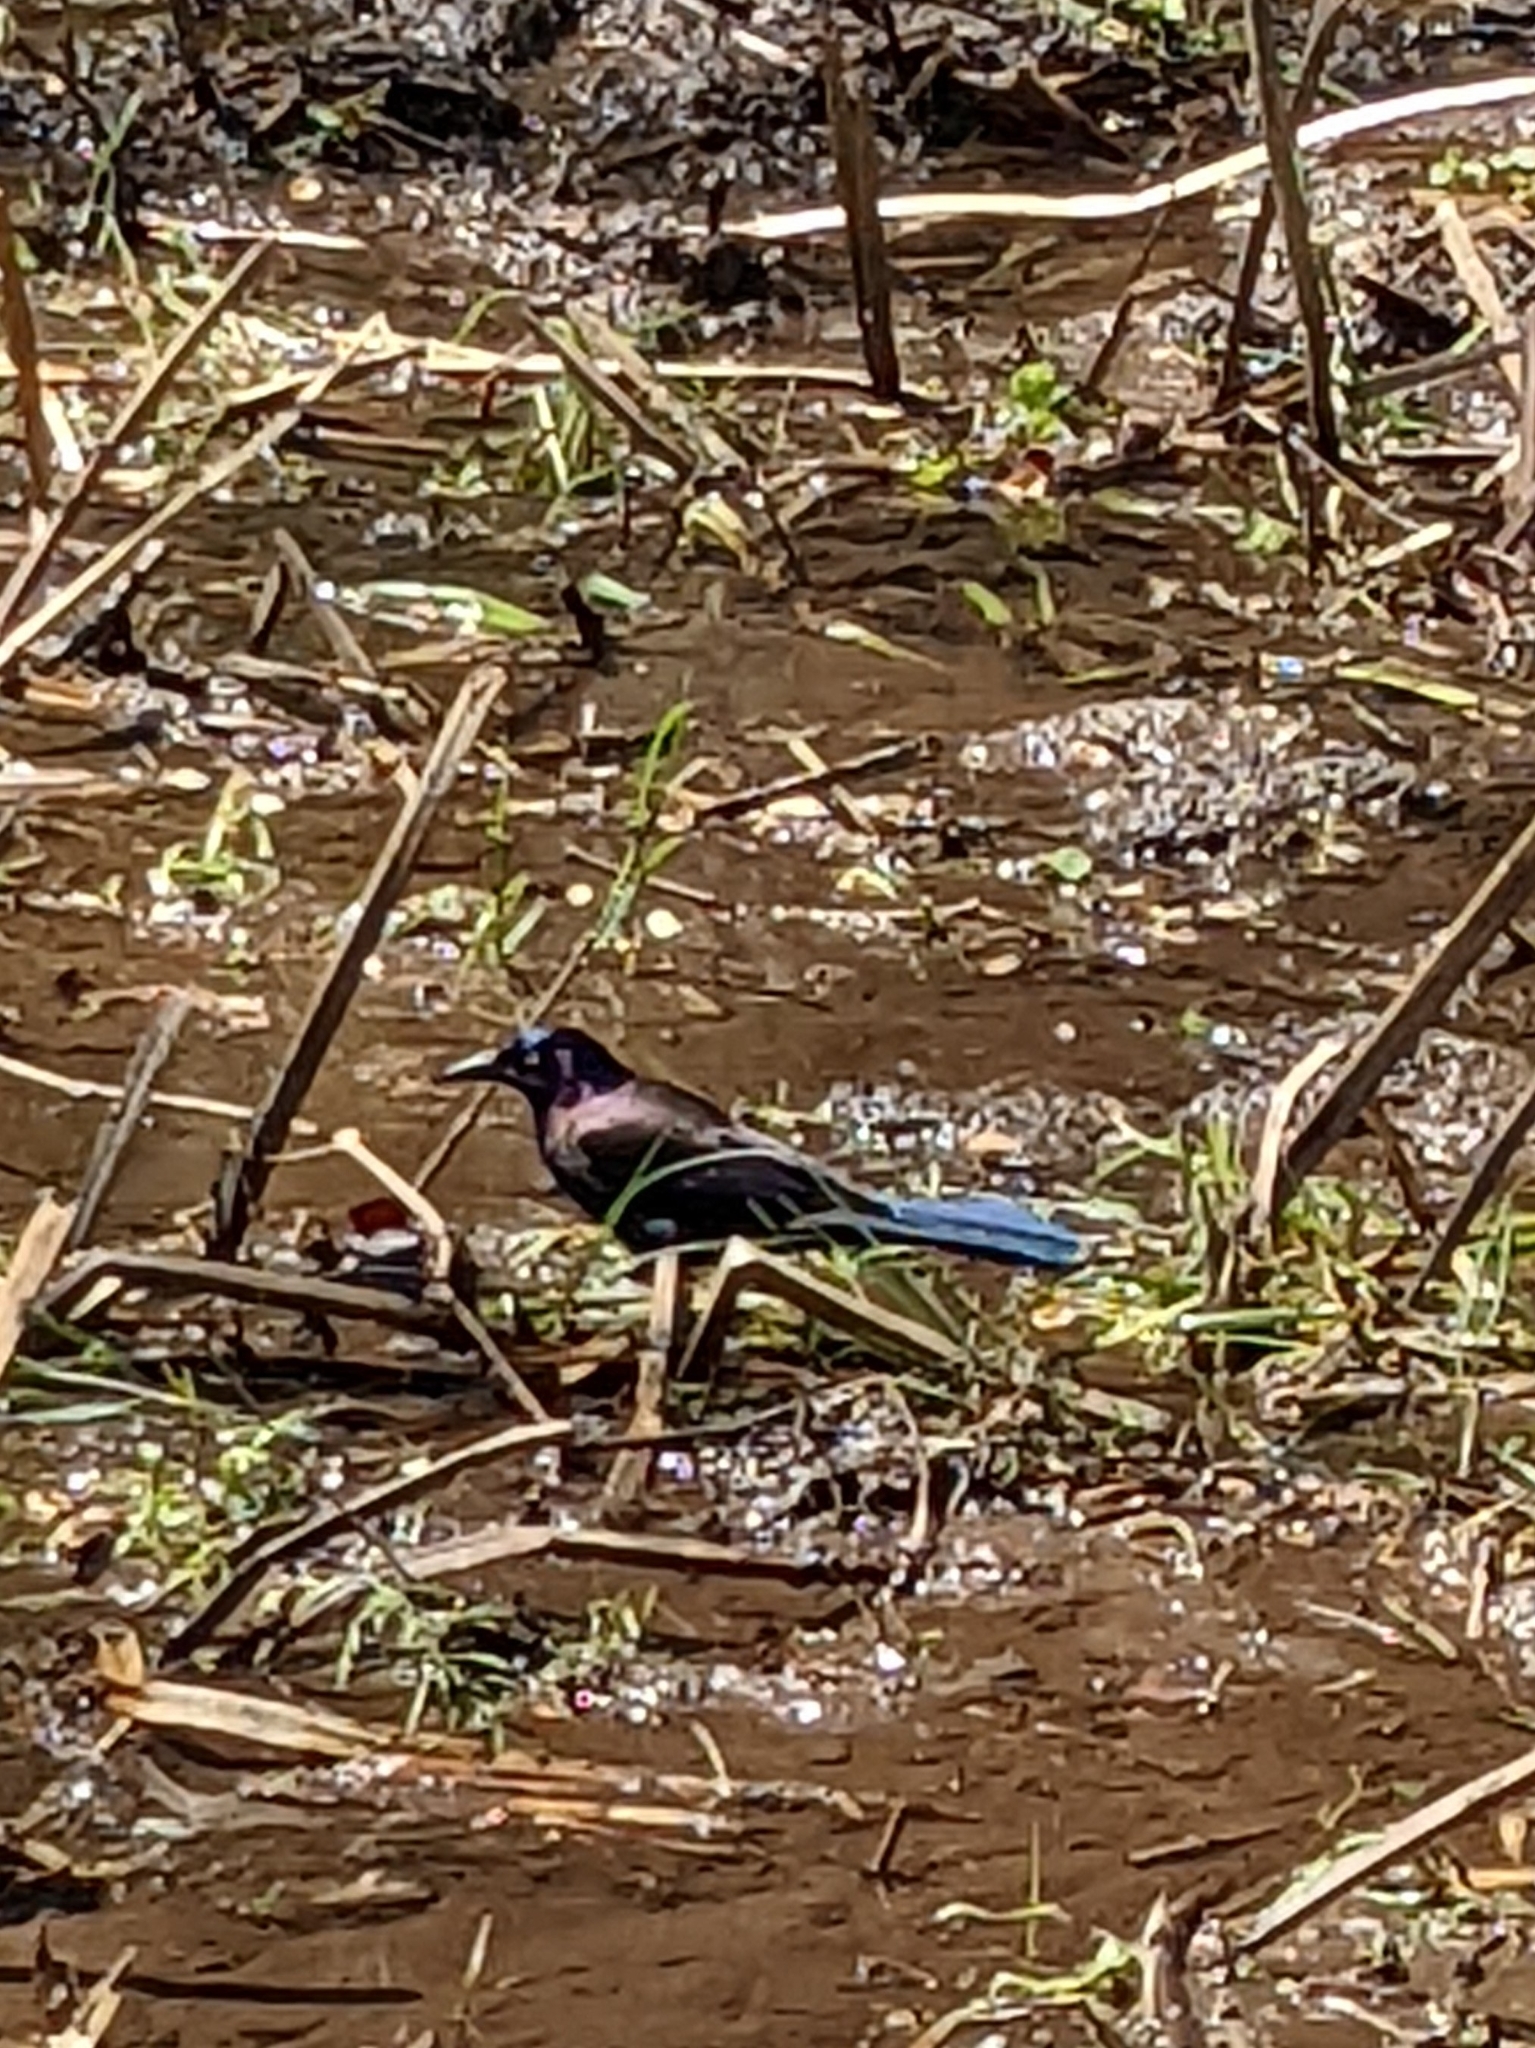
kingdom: Animalia
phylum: Chordata
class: Aves
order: Passeriformes
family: Icteridae
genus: Quiscalus
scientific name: Quiscalus quiscula
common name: Common grackle
